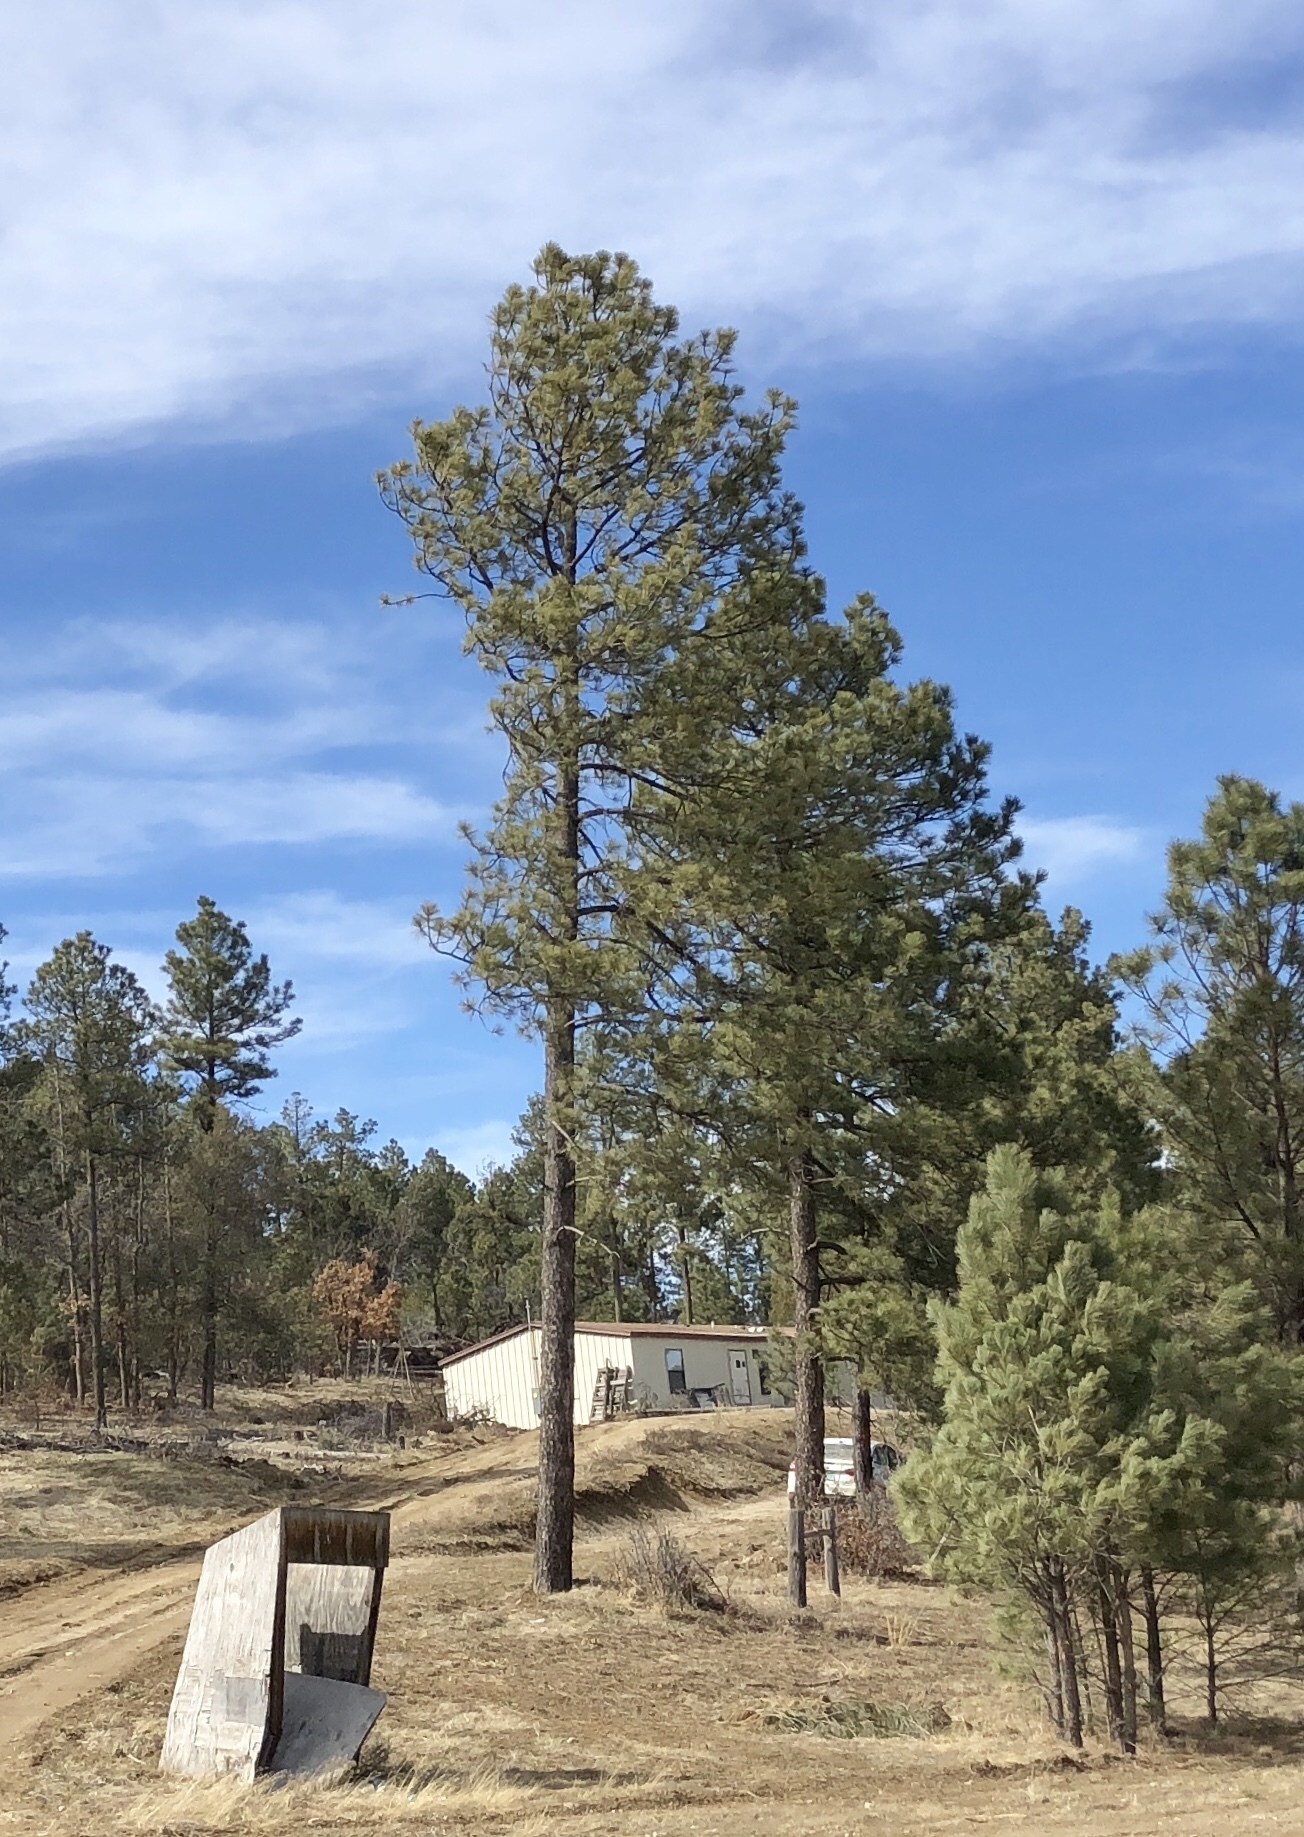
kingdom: Plantae
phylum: Tracheophyta
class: Pinopsida
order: Pinales
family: Pinaceae
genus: Pinus
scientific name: Pinus ponderosa
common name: Western yellow-pine
